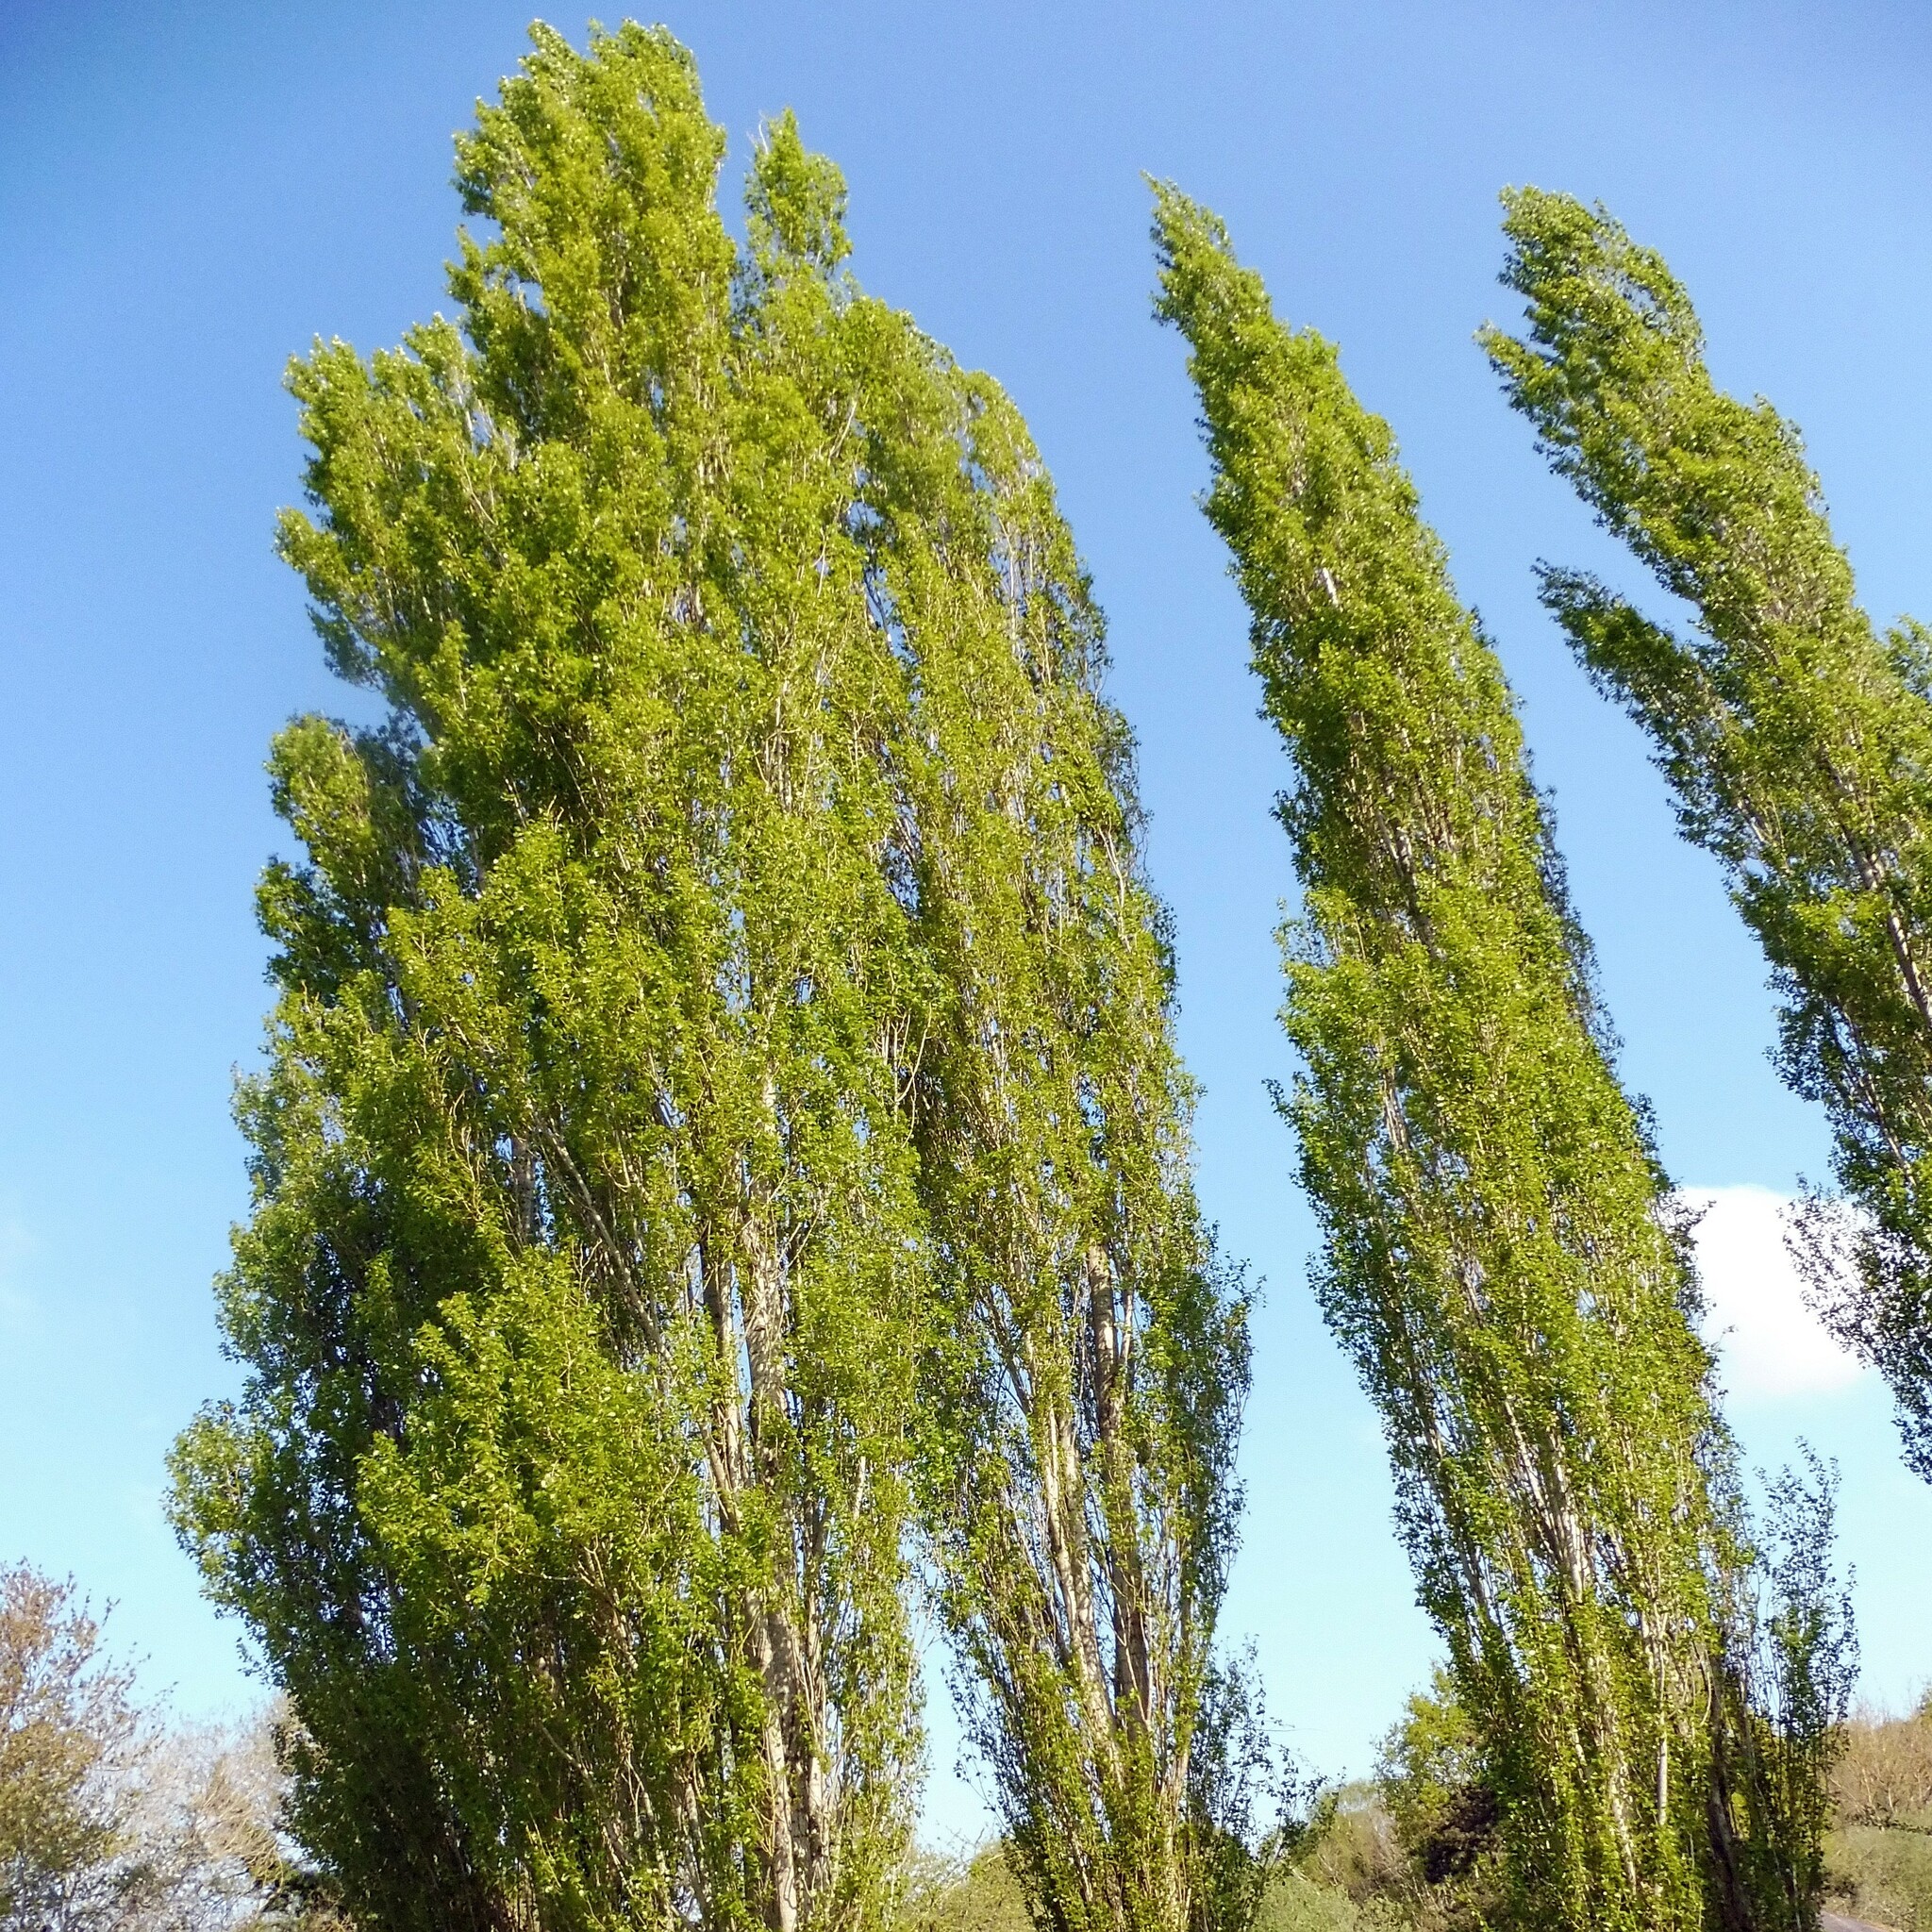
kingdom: Plantae
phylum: Tracheophyta
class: Magnoliopsida
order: Malpighiales
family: Salicaceae
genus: Populus
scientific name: Populus nigra
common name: Black poplar
